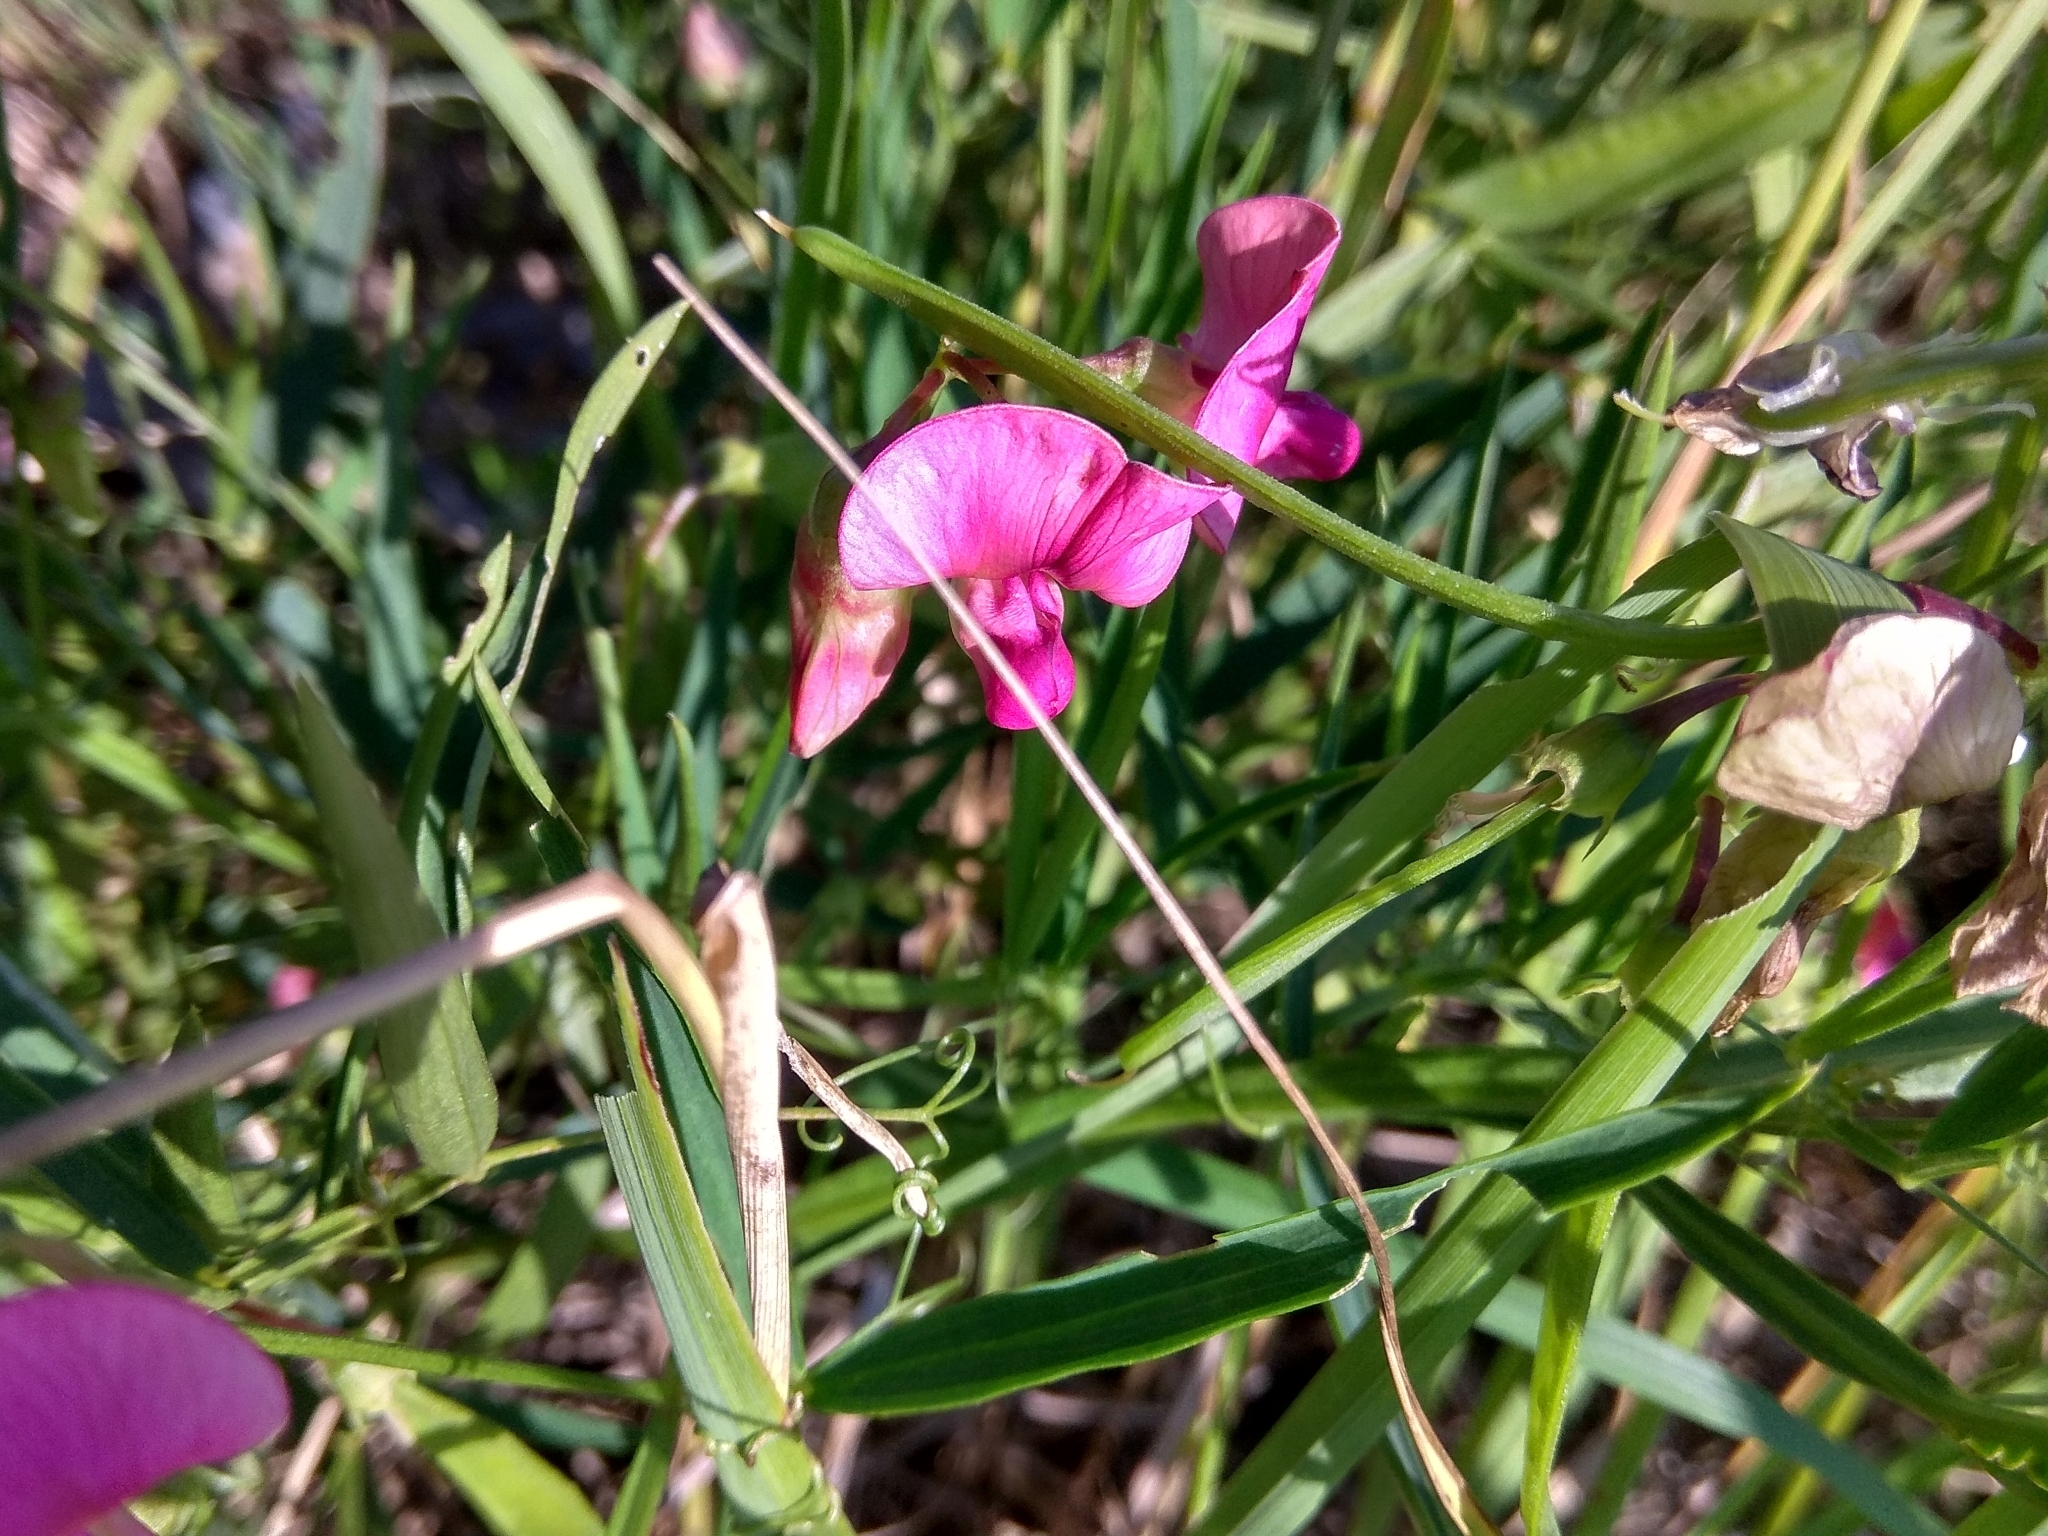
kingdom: Plantae
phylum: Tracheophyta
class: Magnoliopsida
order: Fabales
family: Fabaceae
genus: Lathyrus
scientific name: Lathyrus sylvestris
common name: Flat pea
